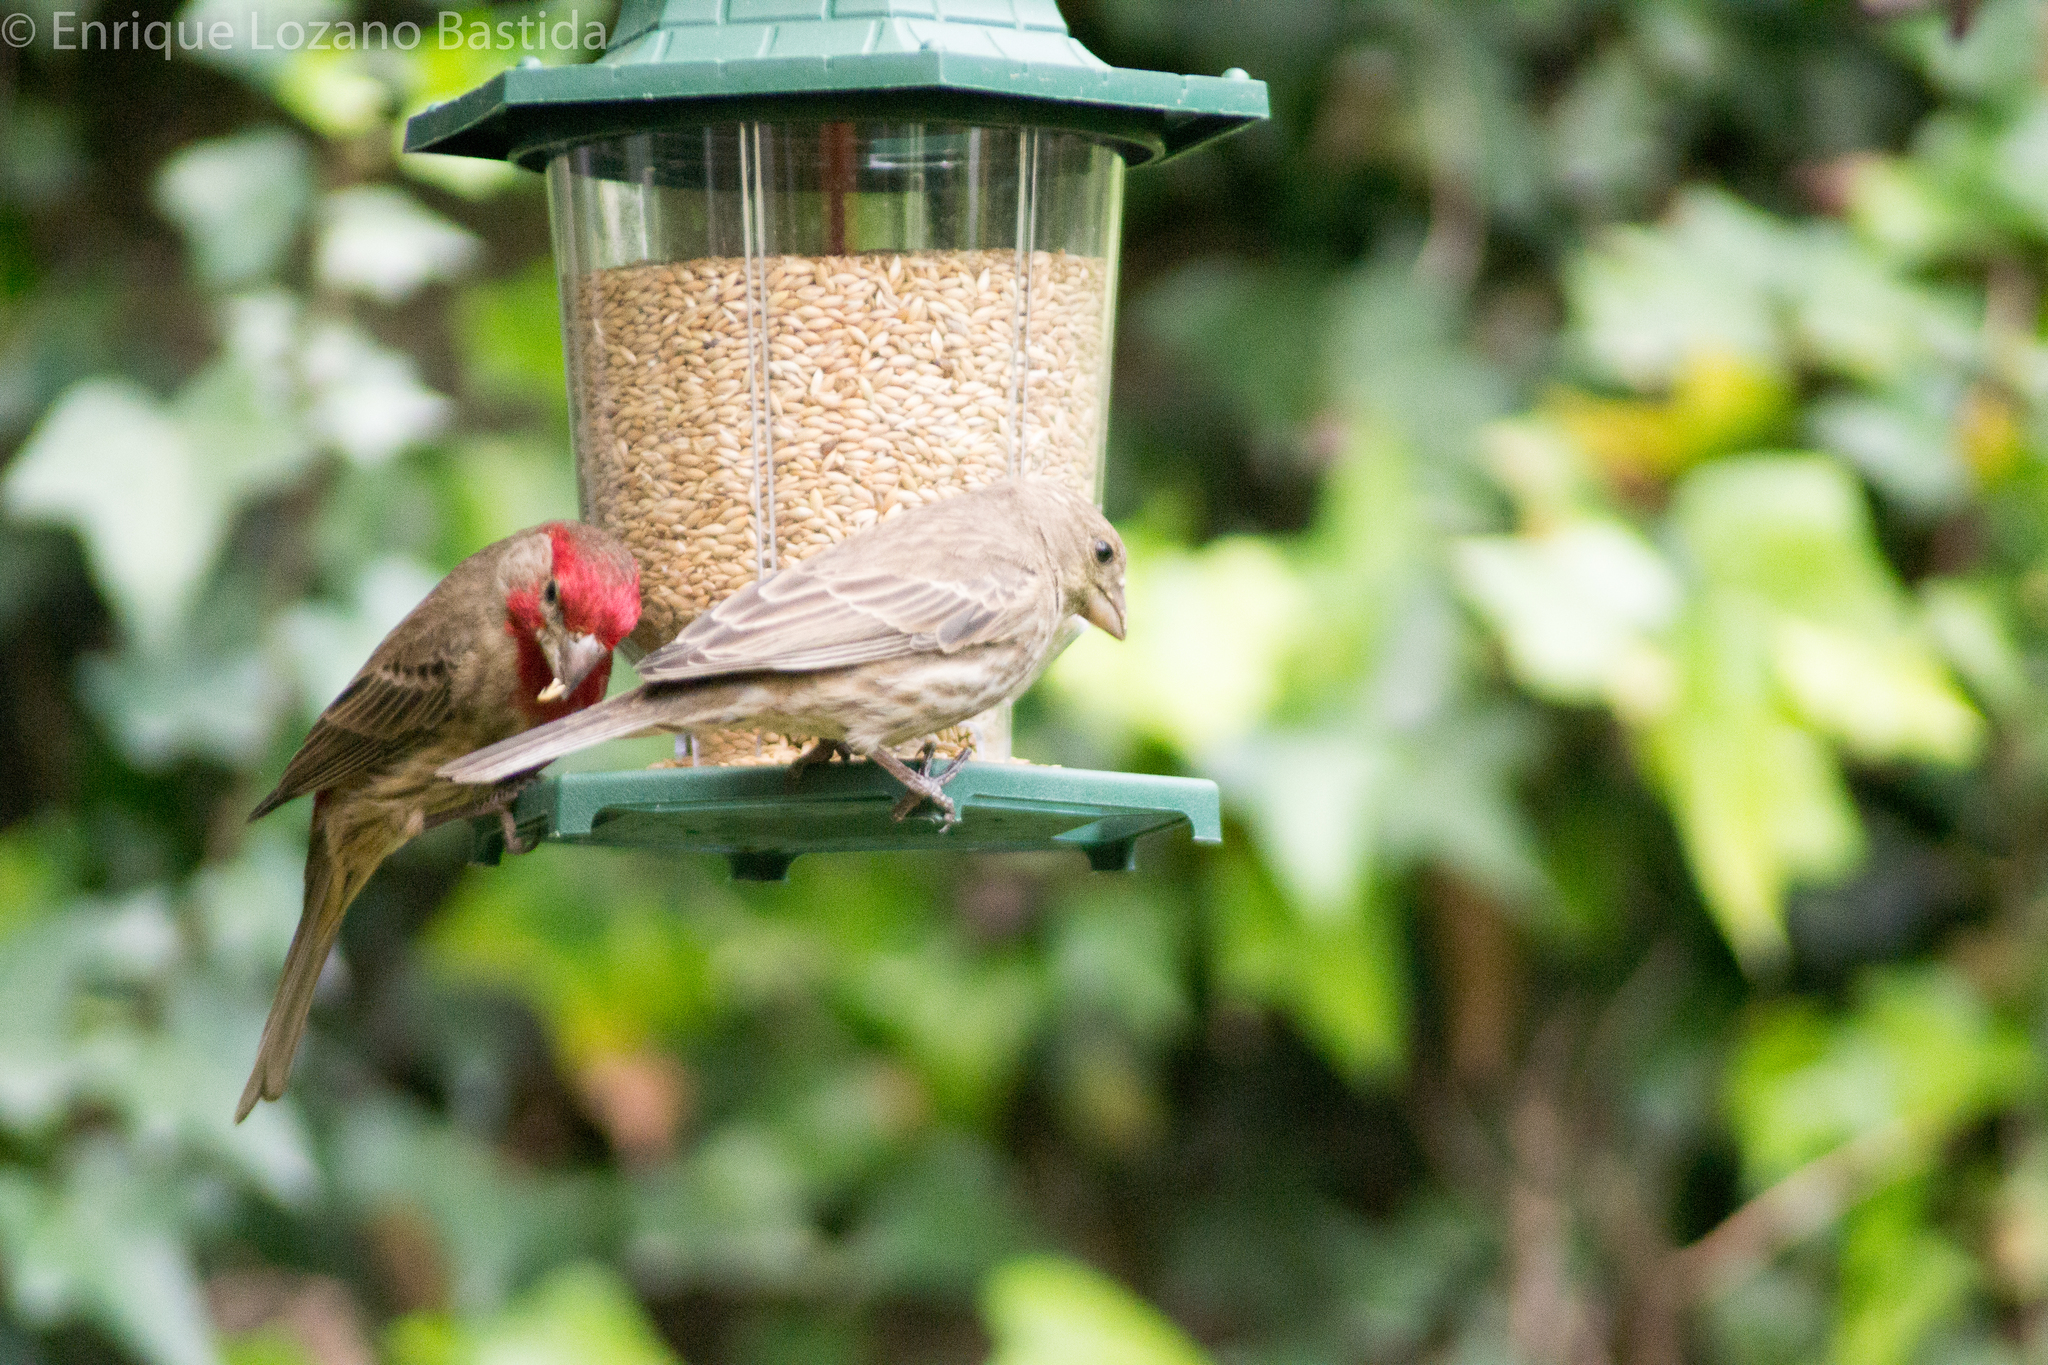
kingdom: Animalia
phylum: Chordata
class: Aves
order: Passeriformes
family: Fringillidae
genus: Haemorhous
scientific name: Haemorhous mexicanus
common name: House finch
